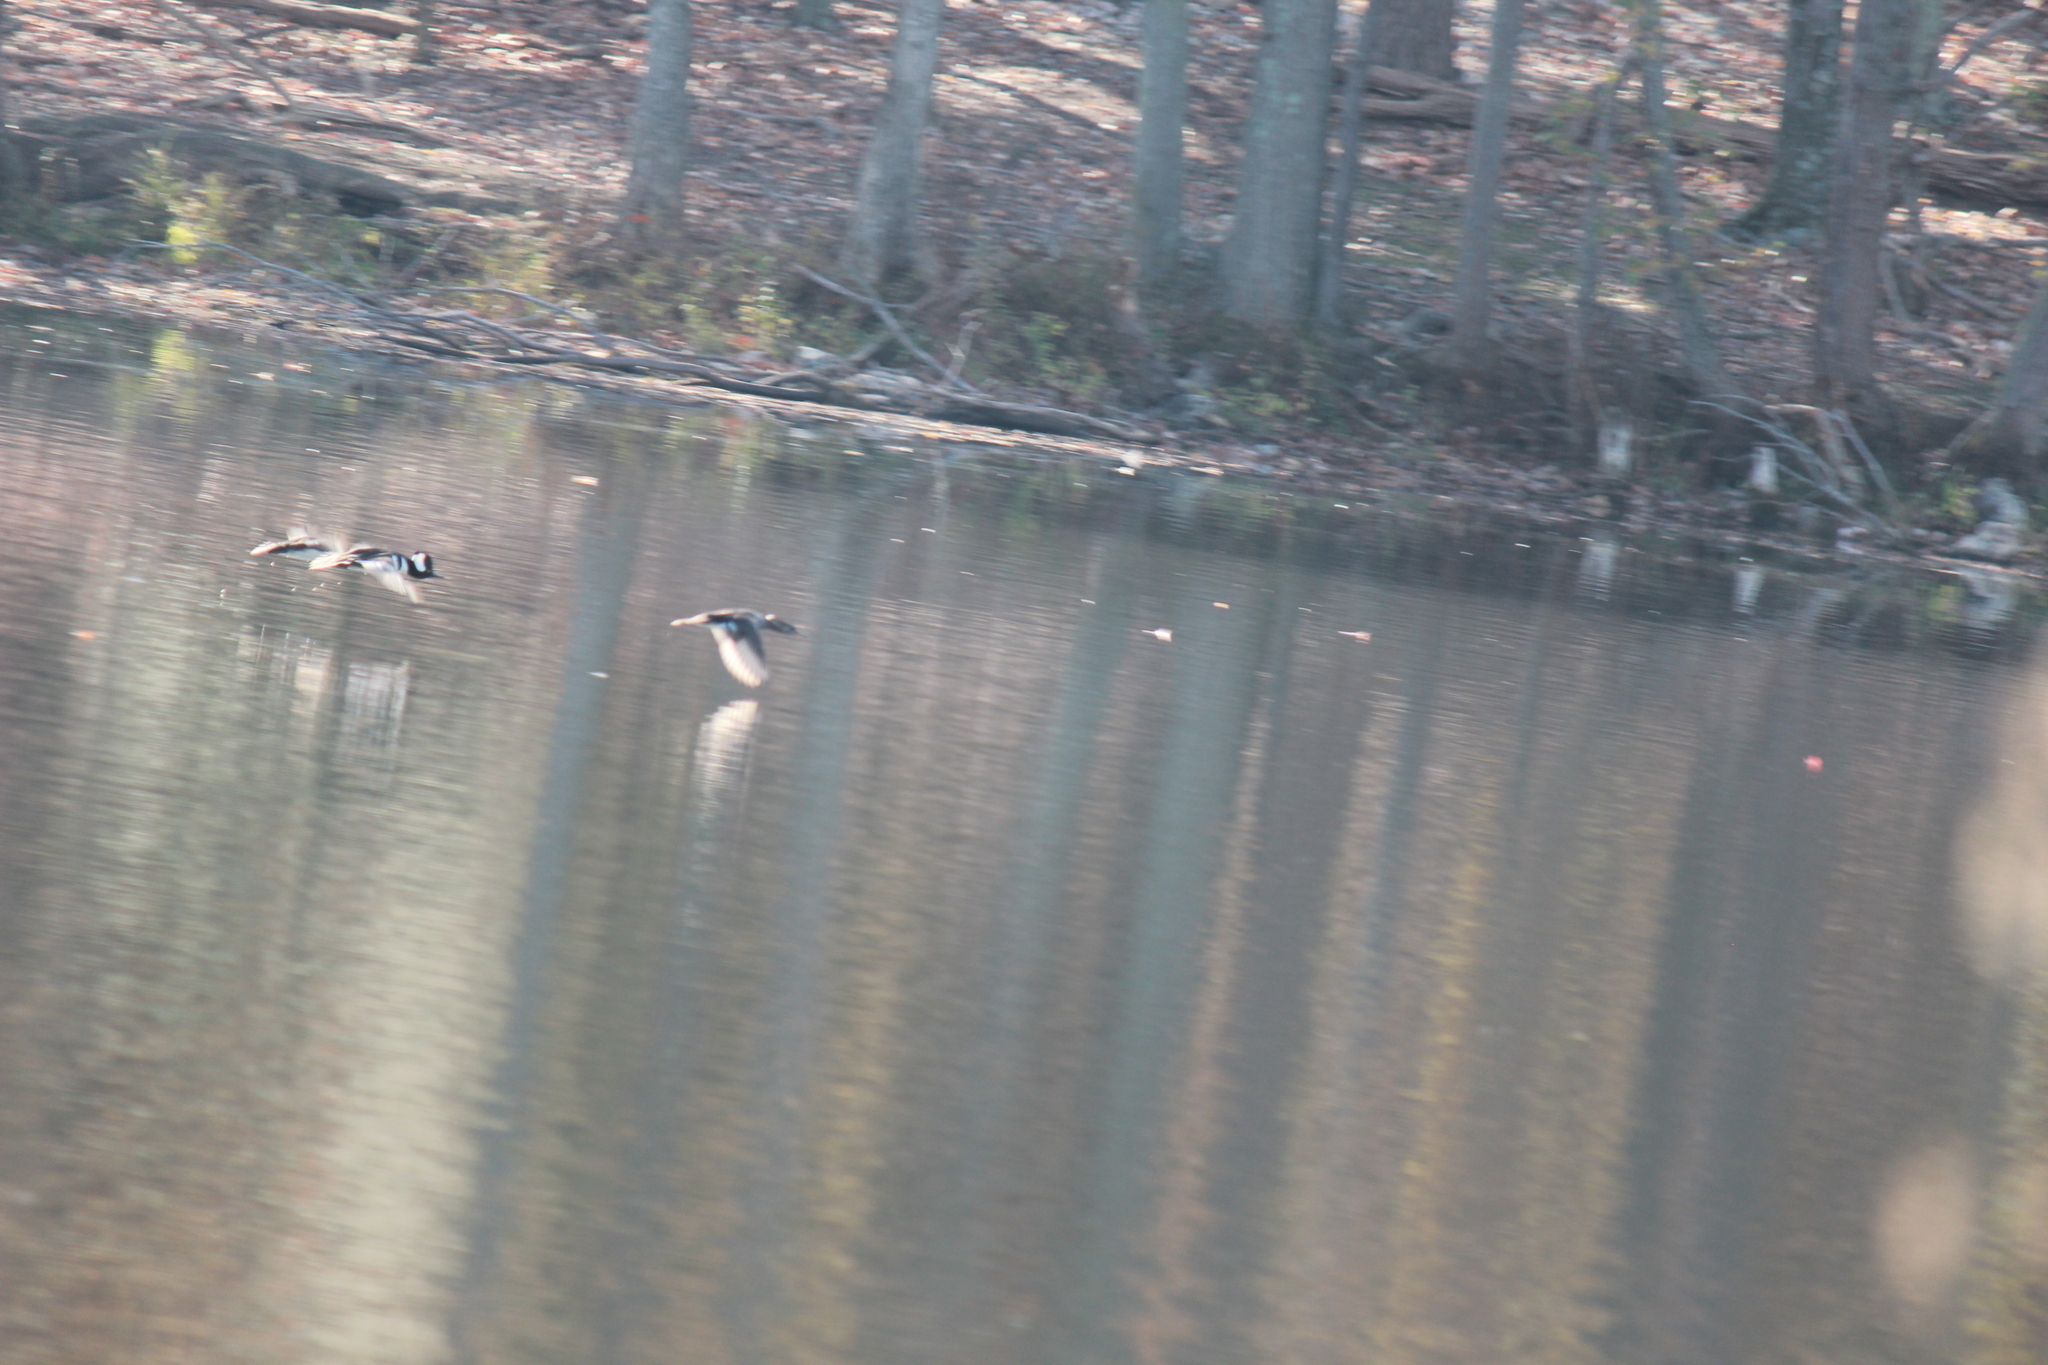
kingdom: Animalia
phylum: Chordata
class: Aves
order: Anseriformes
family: Anatidae
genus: Lophodytes
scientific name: Lophodytes cucullatus
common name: Hooded merganser
